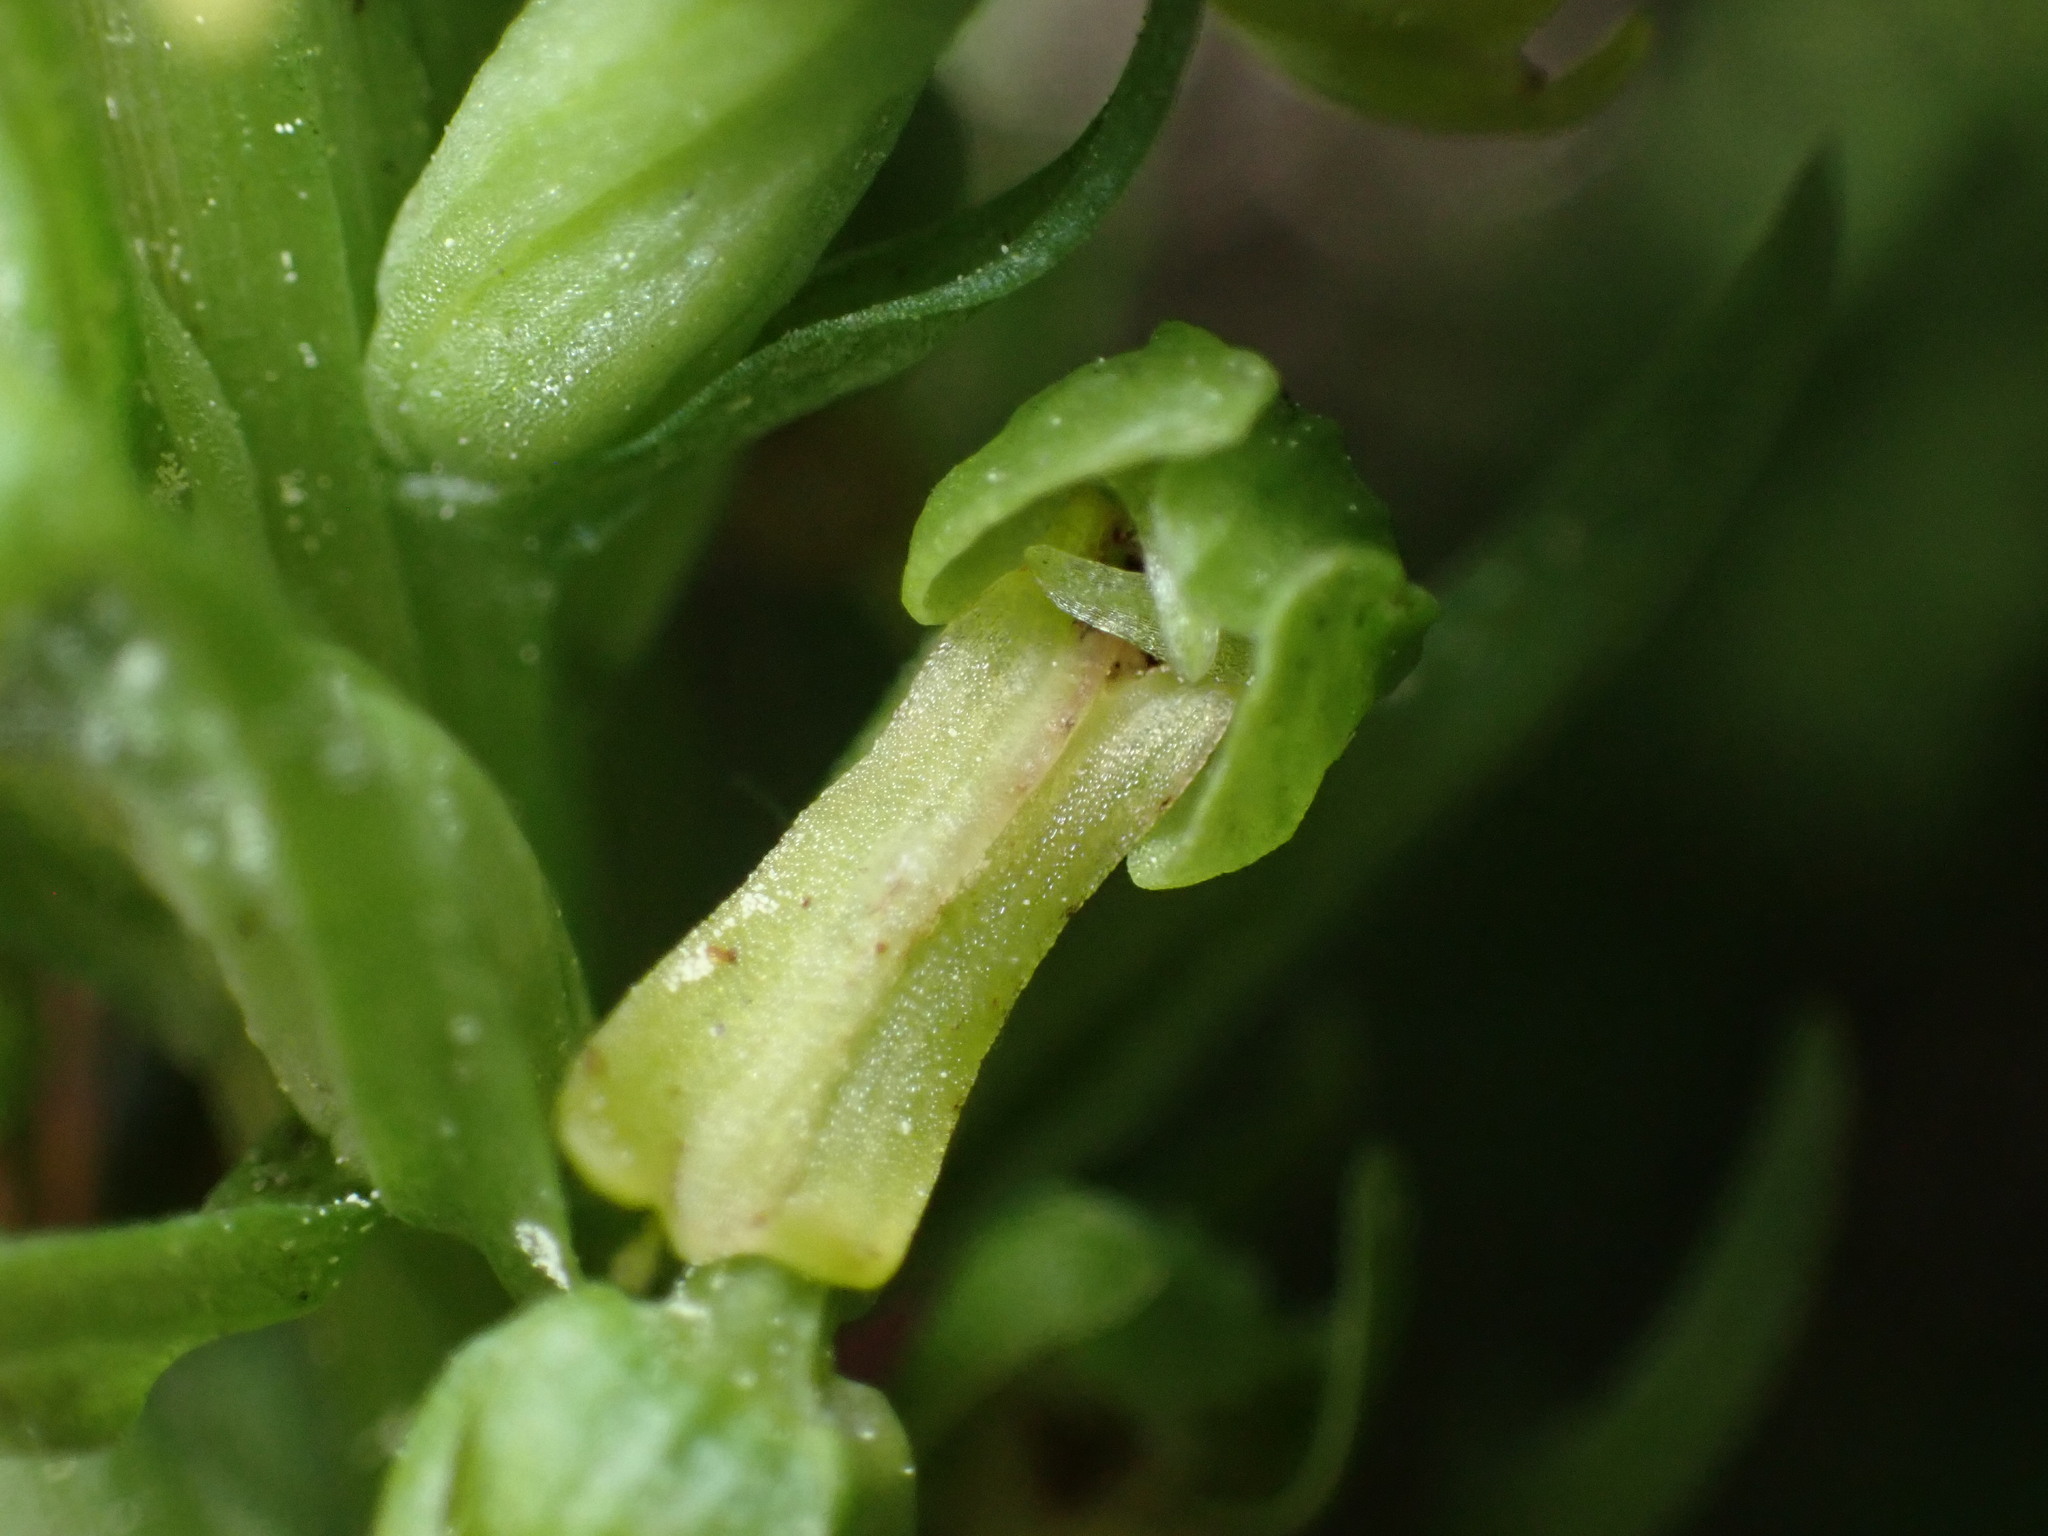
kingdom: Plantae
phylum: Tracheophyta
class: Liliopsida
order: Asparagales
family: Orchidaceae
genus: Dactylorhiza
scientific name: Dactylorhiza viridis
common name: Longbract frog orchid
